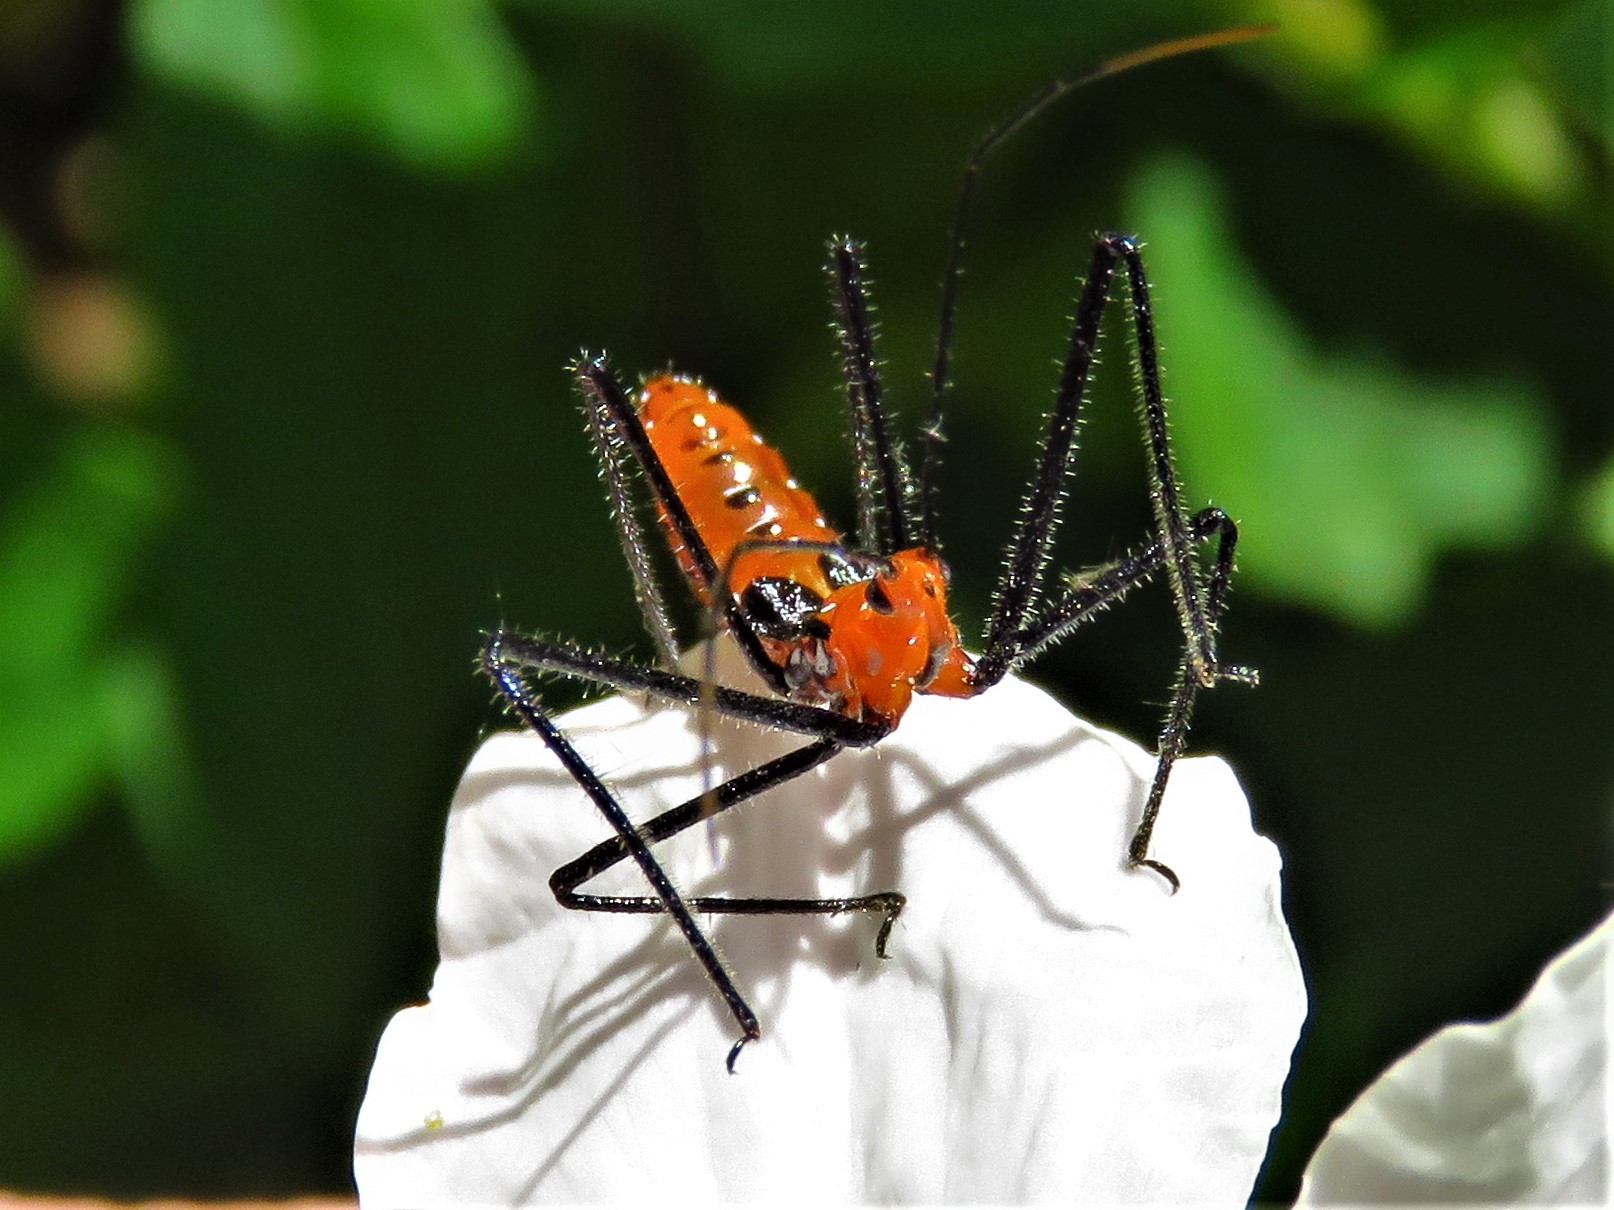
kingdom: Animalia
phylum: Arthropoda
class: Insecta
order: Hemiptera
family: Reduviidae
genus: Zelus
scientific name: Zelus longipes
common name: Milkweed assassin bug
